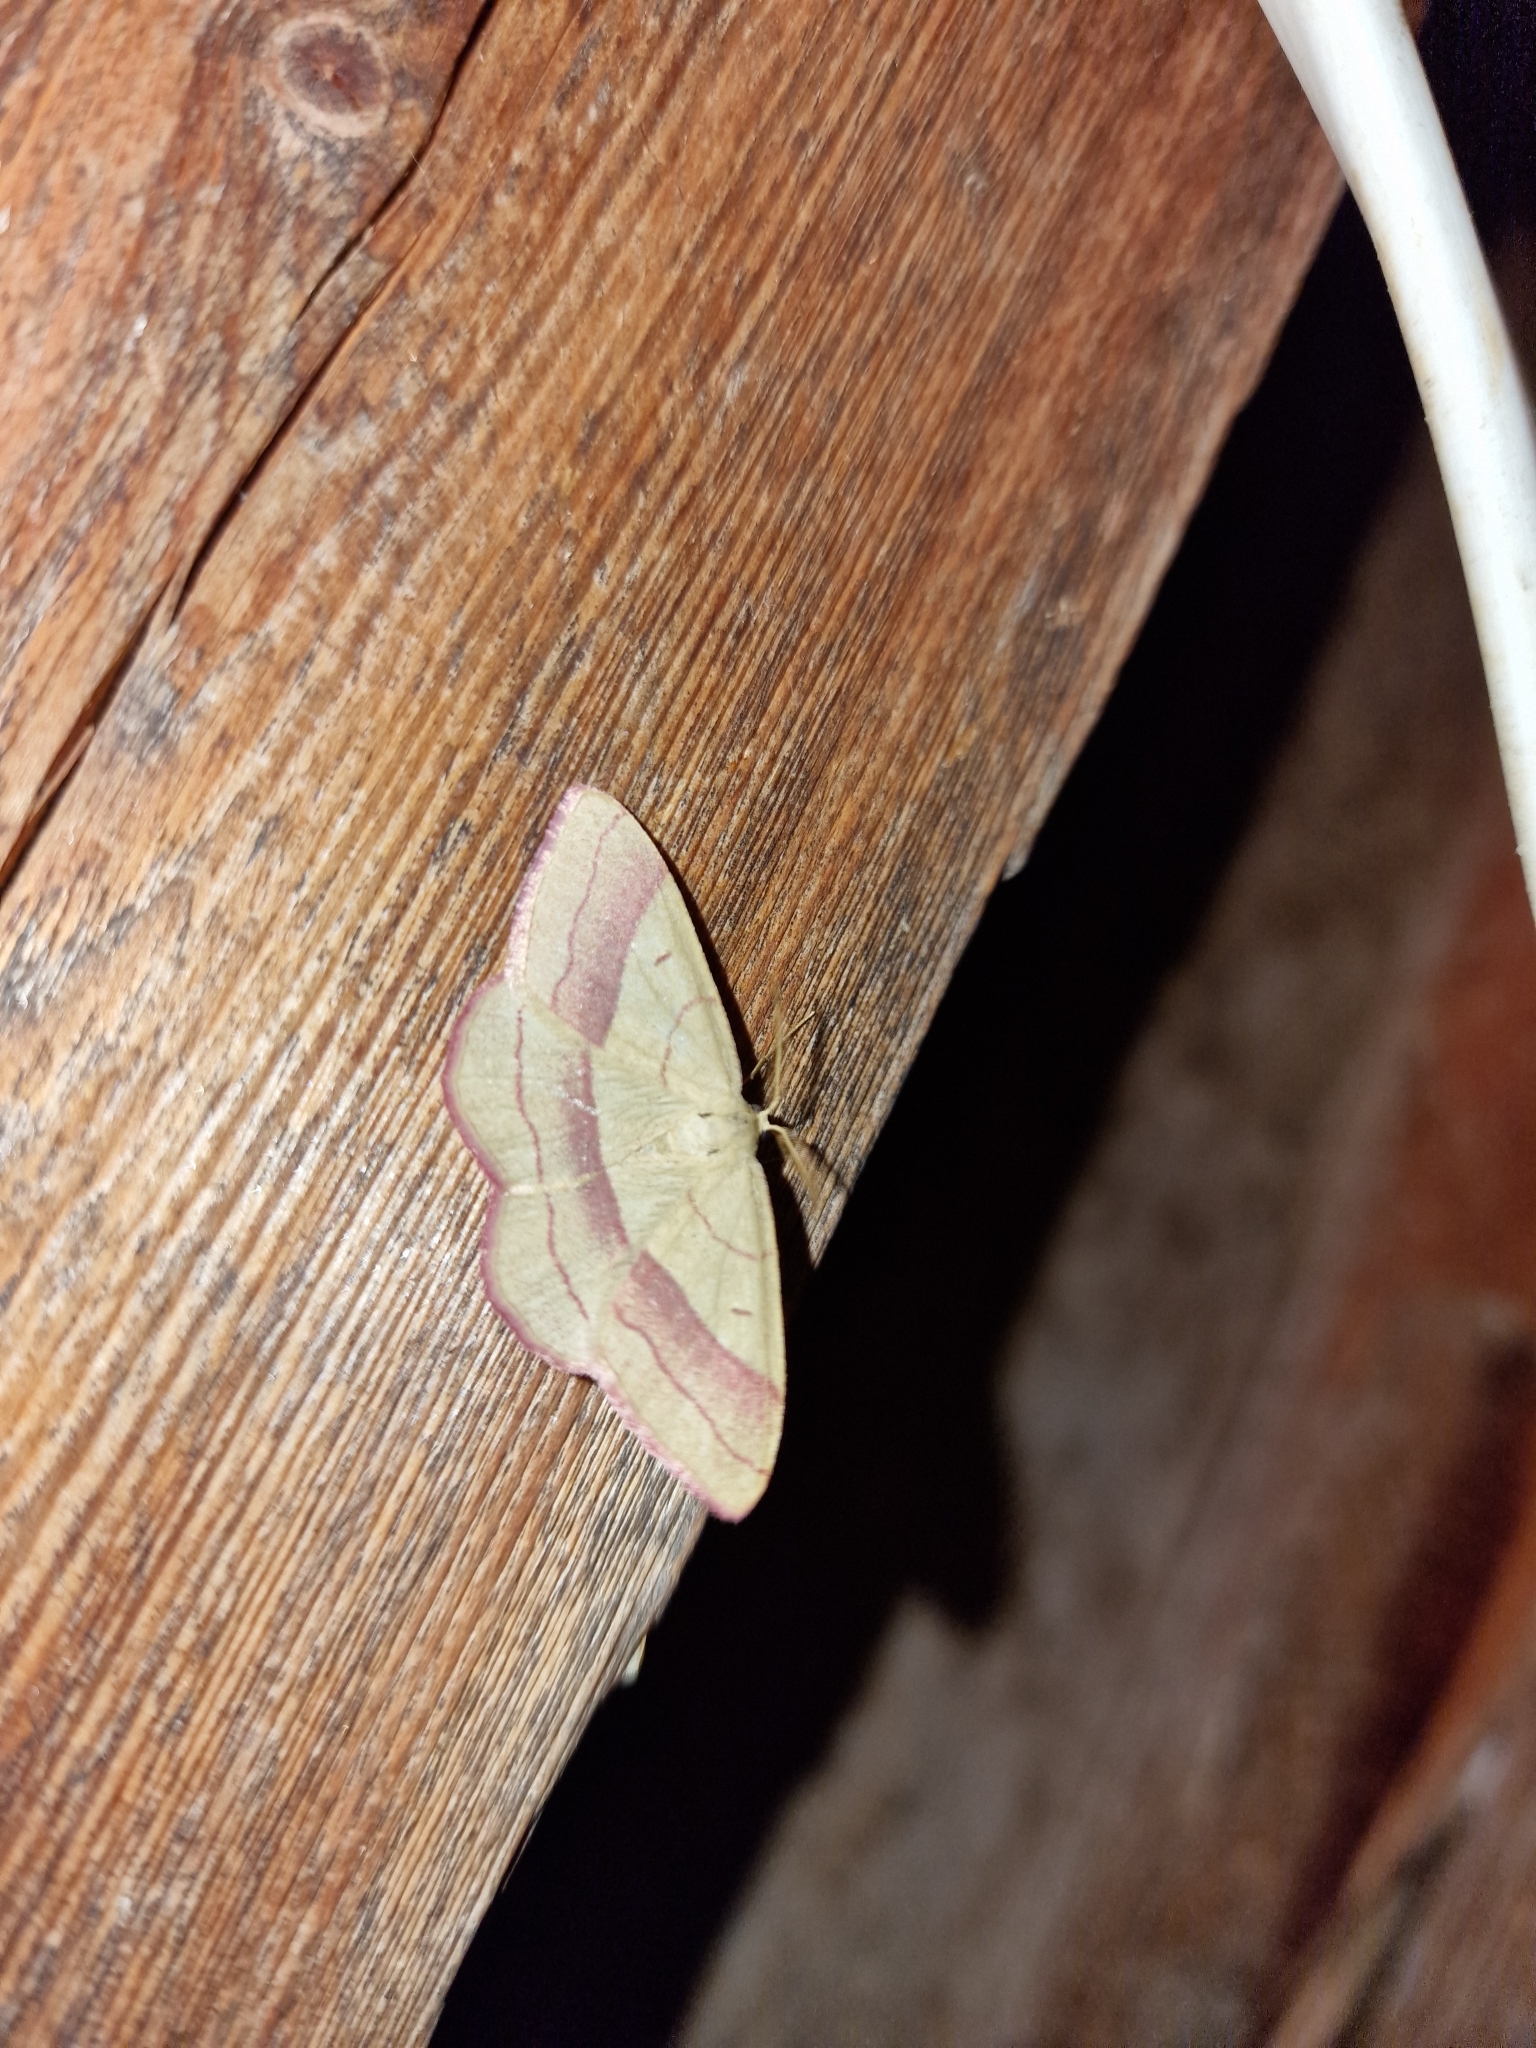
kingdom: Animalia
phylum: Arthropoda
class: Insecta
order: Lepidoptera
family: Geometridae
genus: Rhodostrophia
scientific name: Rhodostrophia vibicaria
